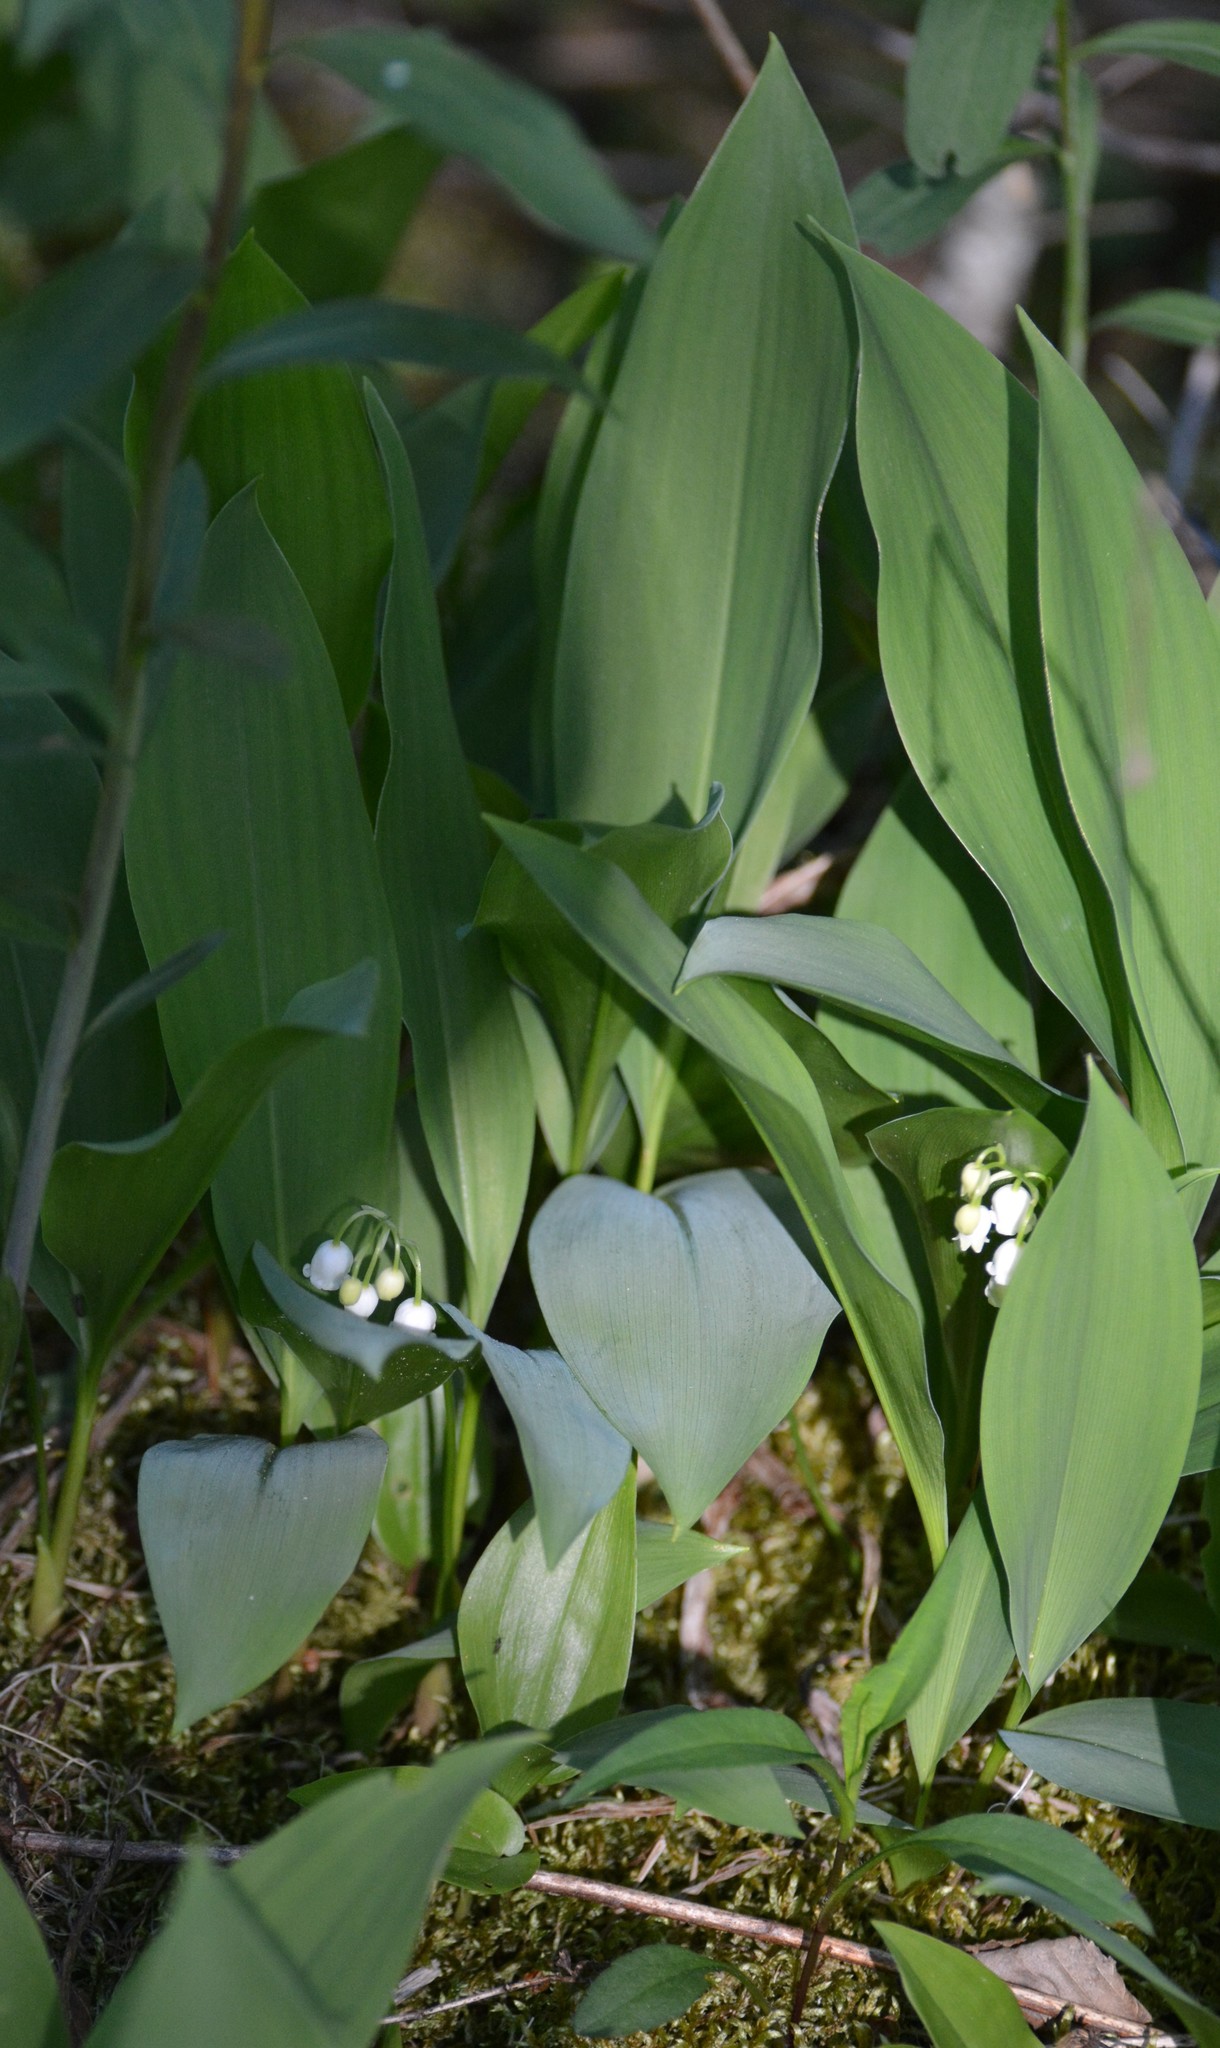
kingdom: Plantae
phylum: Tracheophyta
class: Liliopsida
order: Asparagales
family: Asparagaceae
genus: Convallaria
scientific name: Convallaria majalis
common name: Lily-of-the-valley
